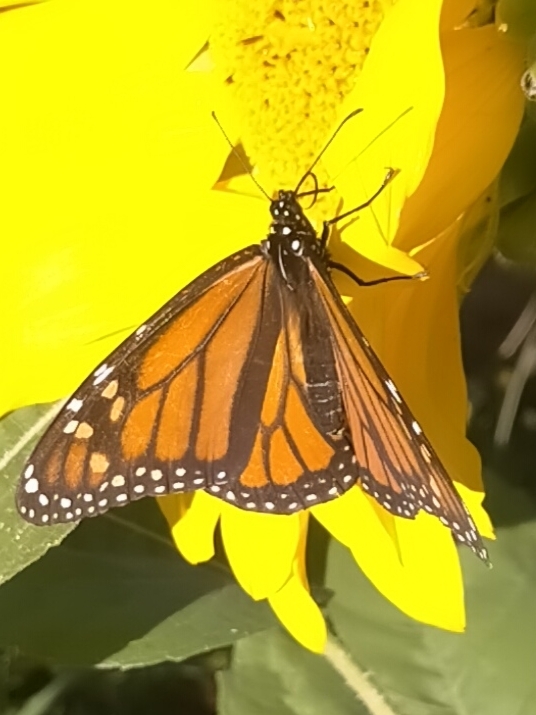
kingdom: Animalia
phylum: Arthropoda
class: Insecta
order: Lepidoptera
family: Nymphalidae
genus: Danaus
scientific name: Danaus plexippus
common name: Monarch
